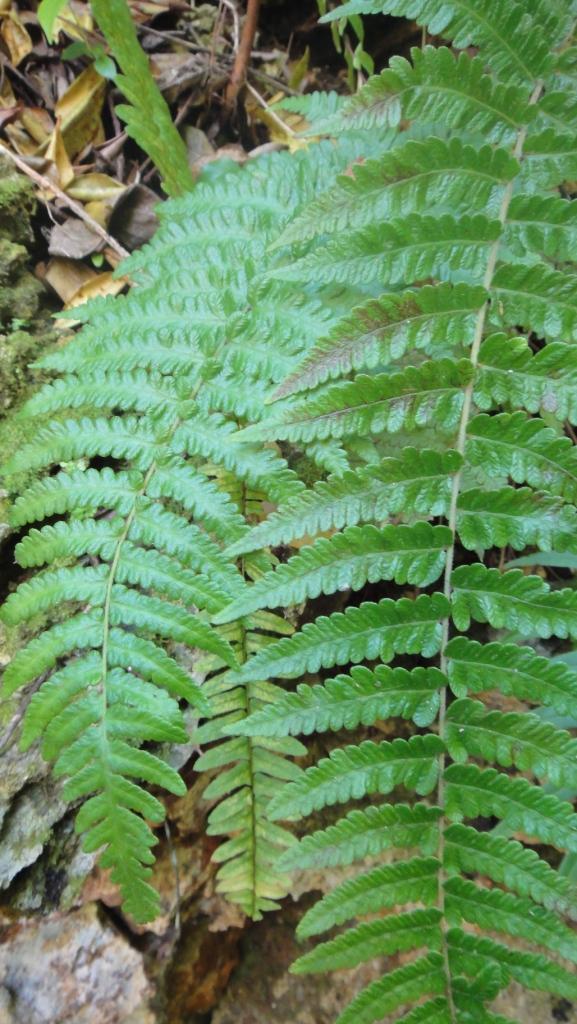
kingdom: Plantae
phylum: Tracheophyta
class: Polypodiopsida
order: Polypodiales
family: Thelypteridaceae
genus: Goniopteris
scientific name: Goniopteris bermudiana
